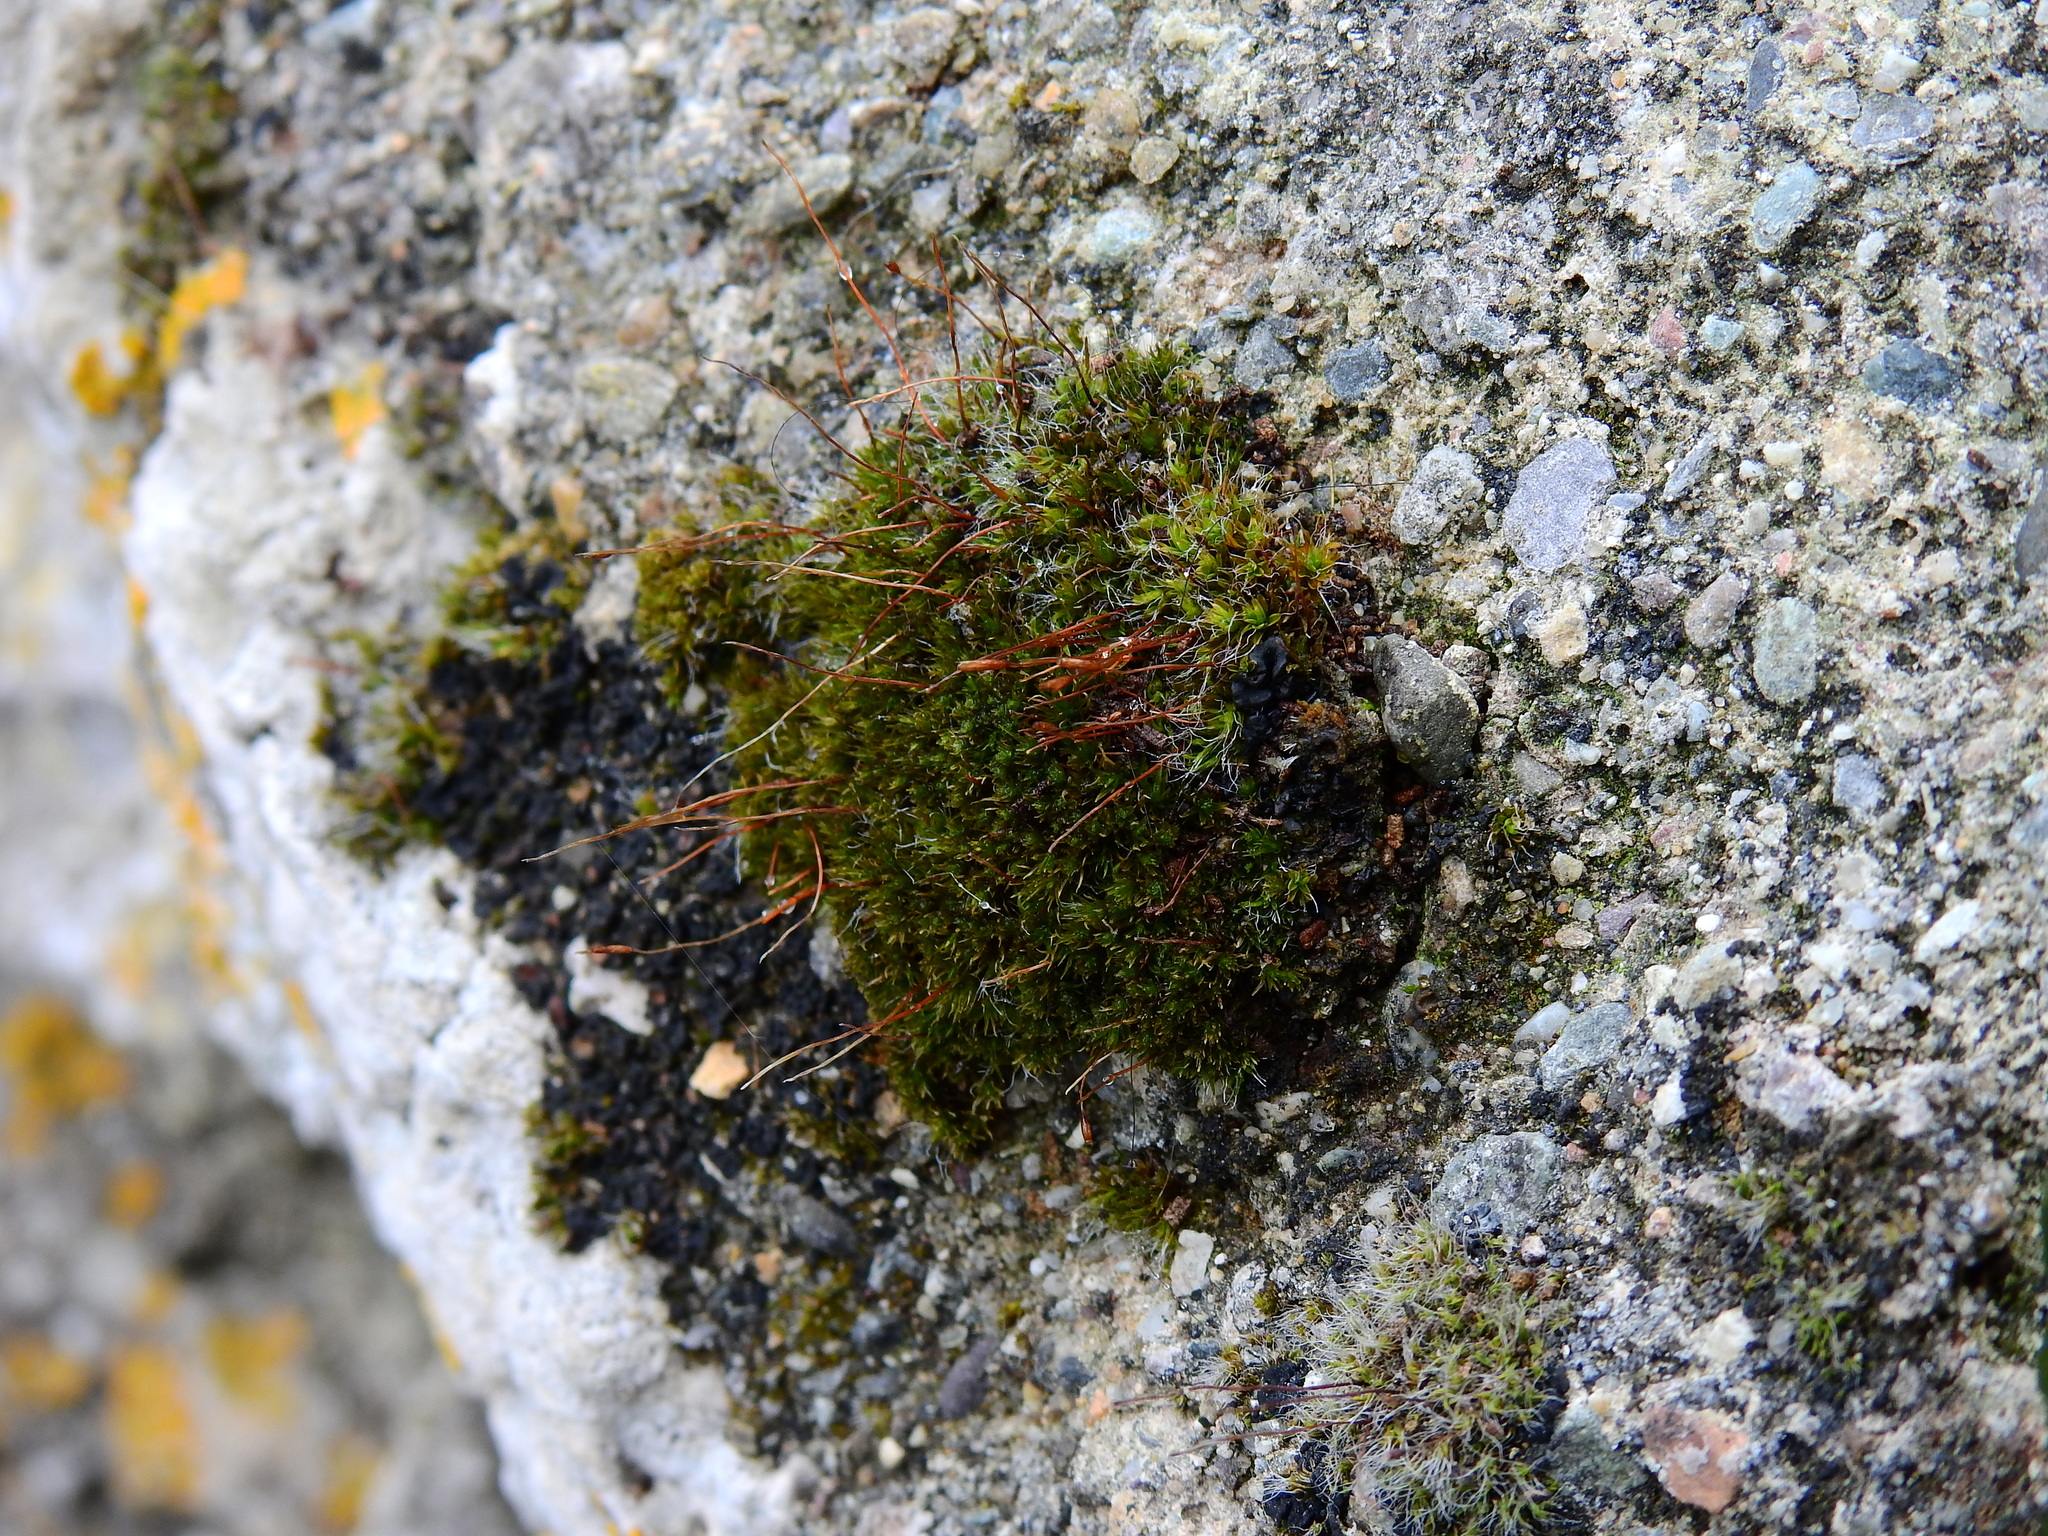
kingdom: Plantae
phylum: Bryophyta
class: Bryopsida
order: Pottiales
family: Pottiaceae
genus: Tortula
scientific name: Tortula muralis
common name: Wall screw-moss
